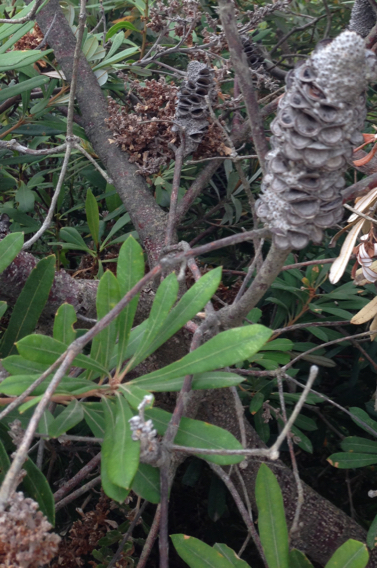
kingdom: Plantae
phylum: Tracheophyta
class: Magnoliopsida
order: Proteales
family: Proteaceae
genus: Banksia
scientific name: Banksia integrifolia
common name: White-honeysuckle
